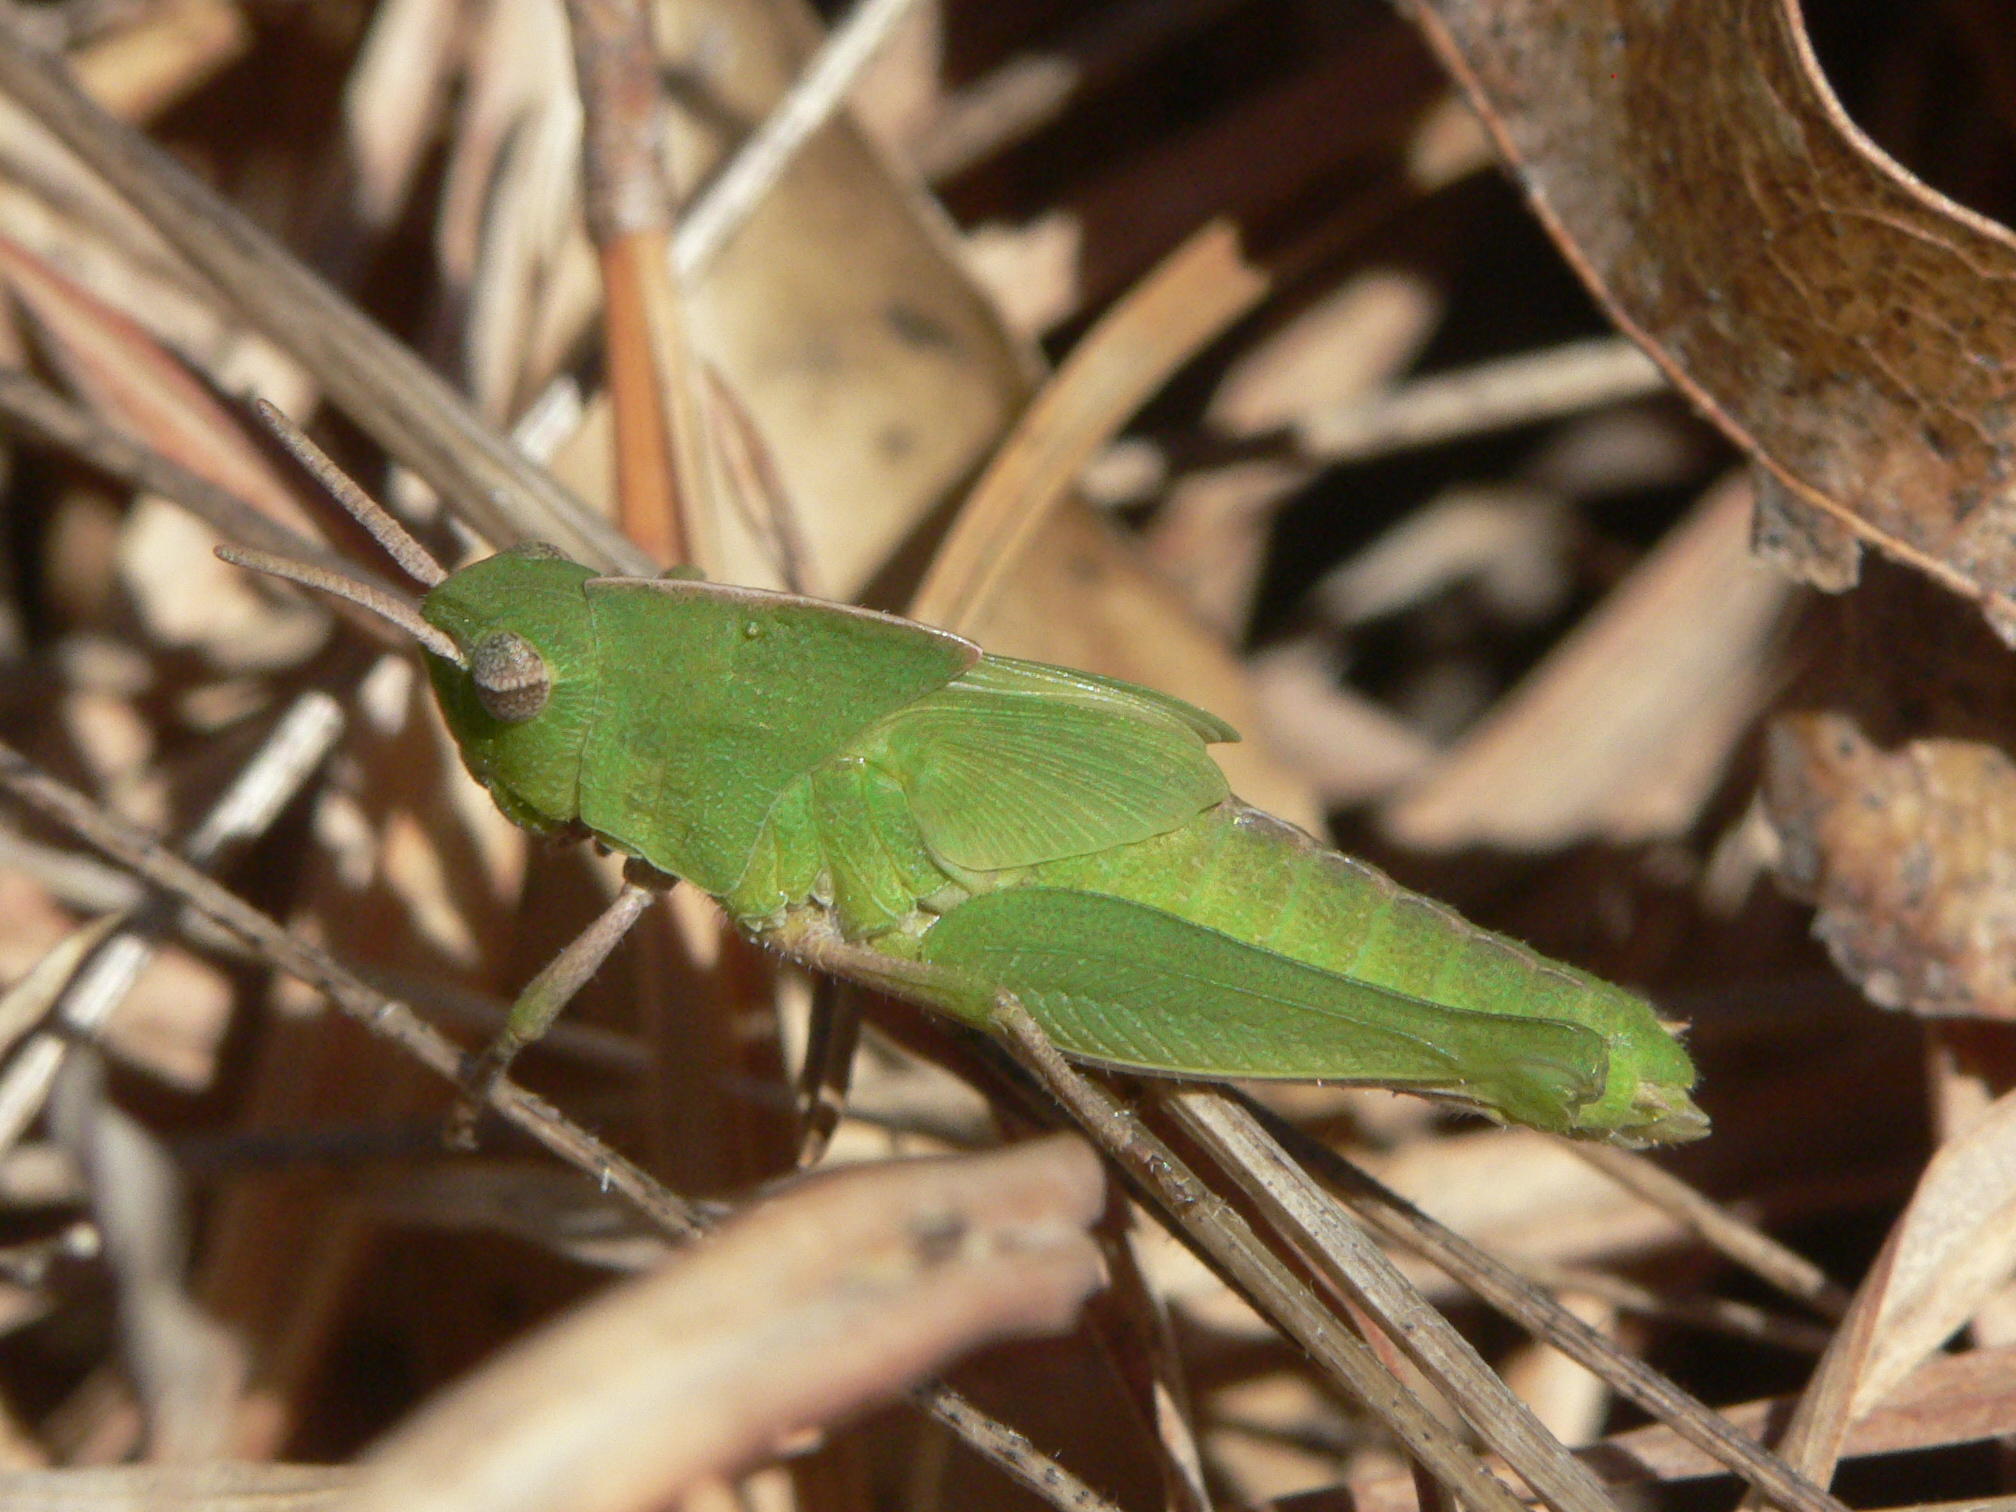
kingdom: Animalia
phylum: Arthropoda
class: Insecta
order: Orthoptera
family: Acrididae
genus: Chortophaga
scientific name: Chortophaga viridifasciata
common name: Green-striped grasshopper
